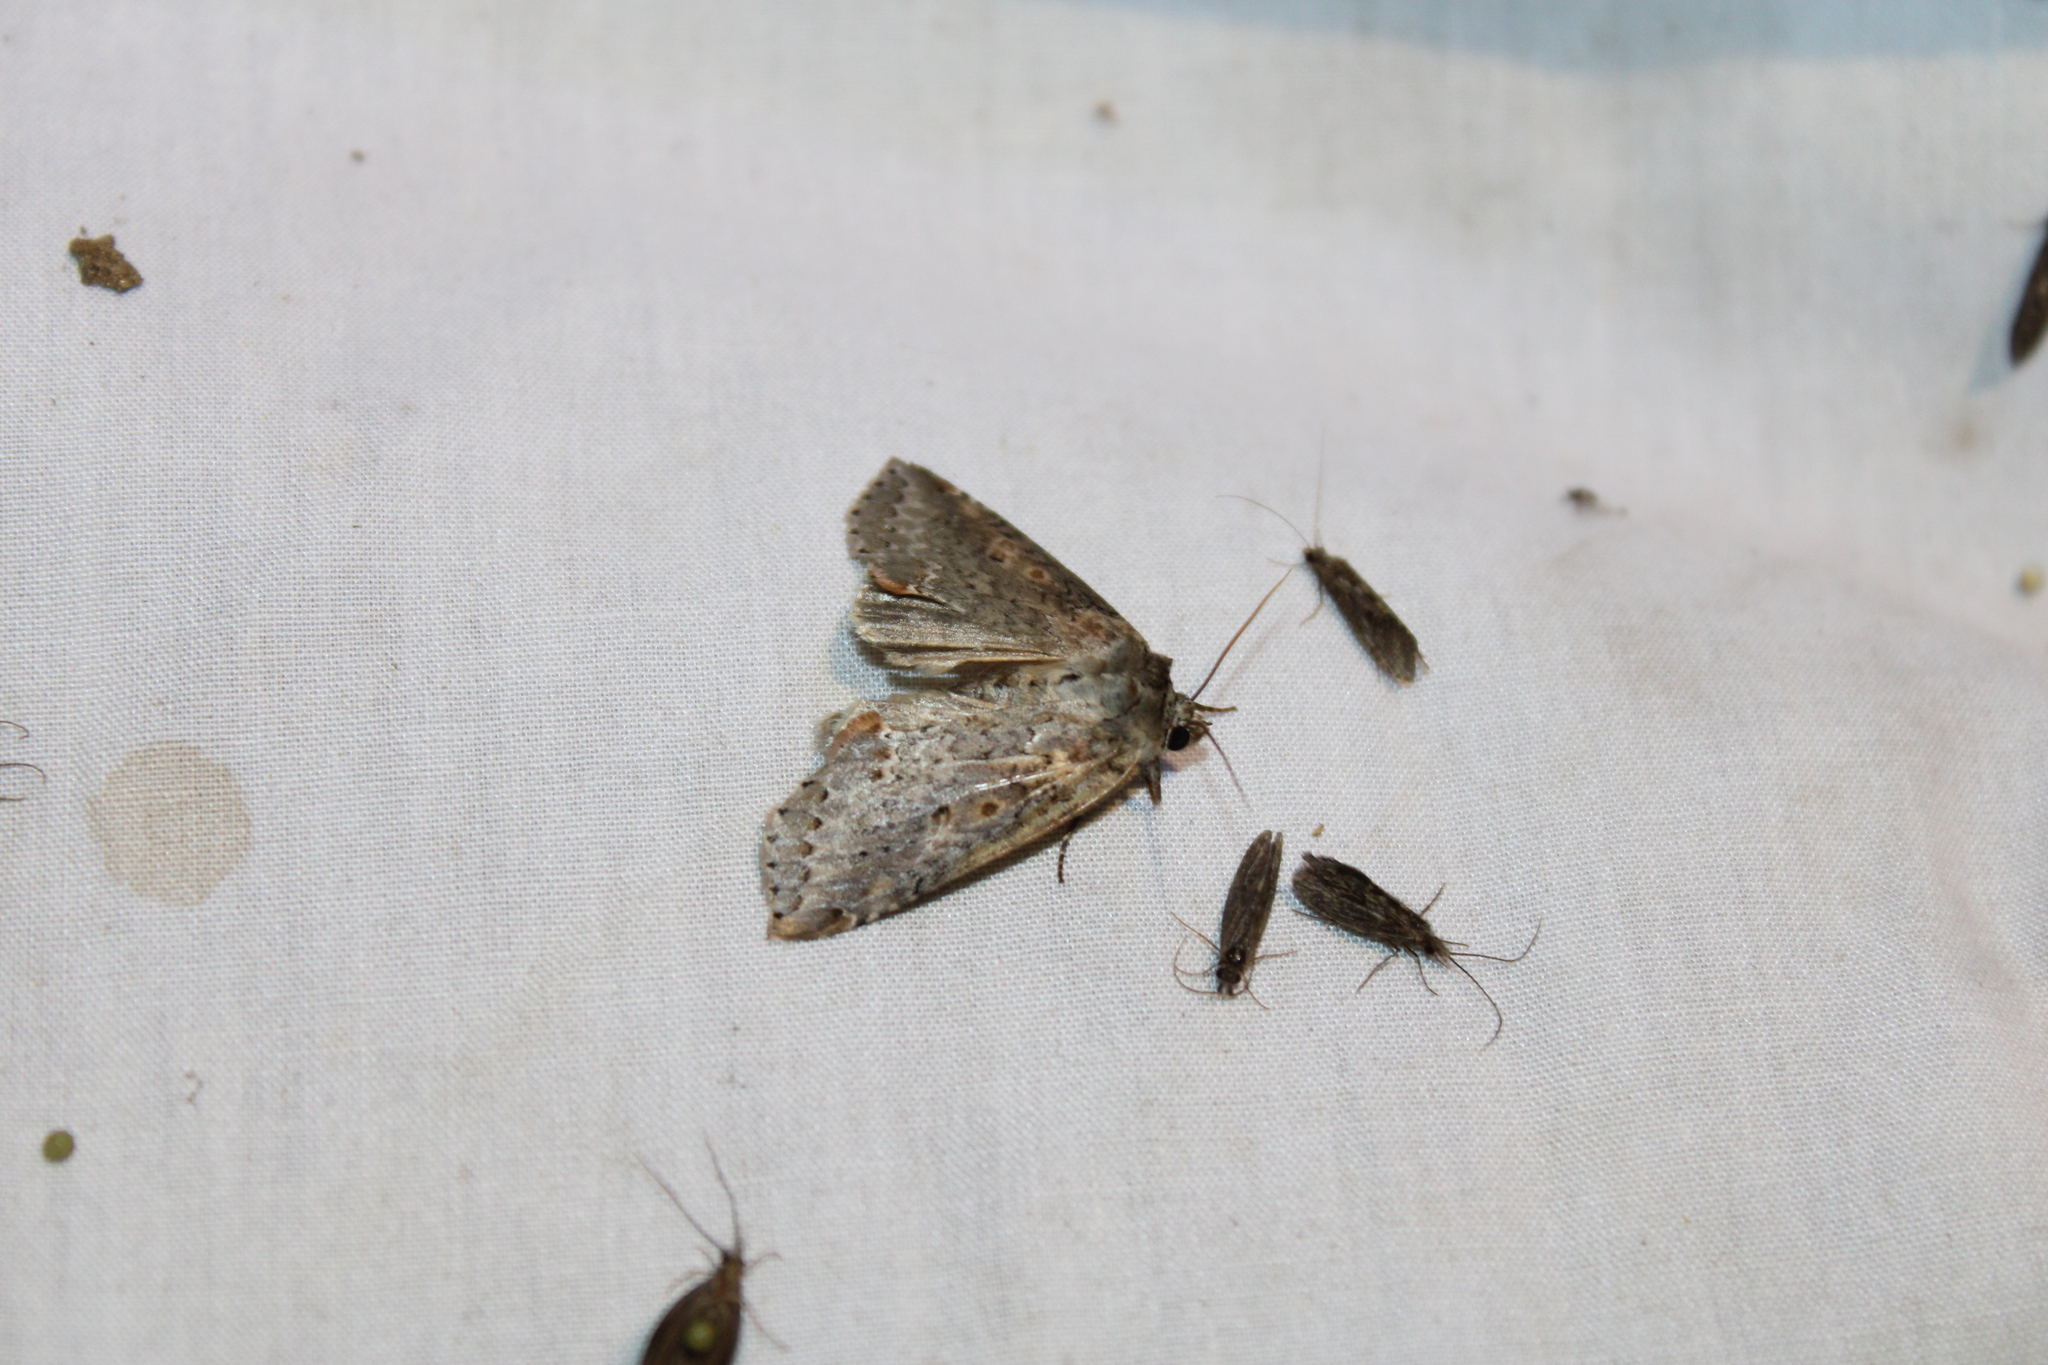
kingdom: Animalia
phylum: Arthropoda
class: Insecta
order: Lepidoptera
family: Drepanidae
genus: Pseudothyatira
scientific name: Pseudothyatira cymatophoroides
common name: Tufted thyatirid moth
